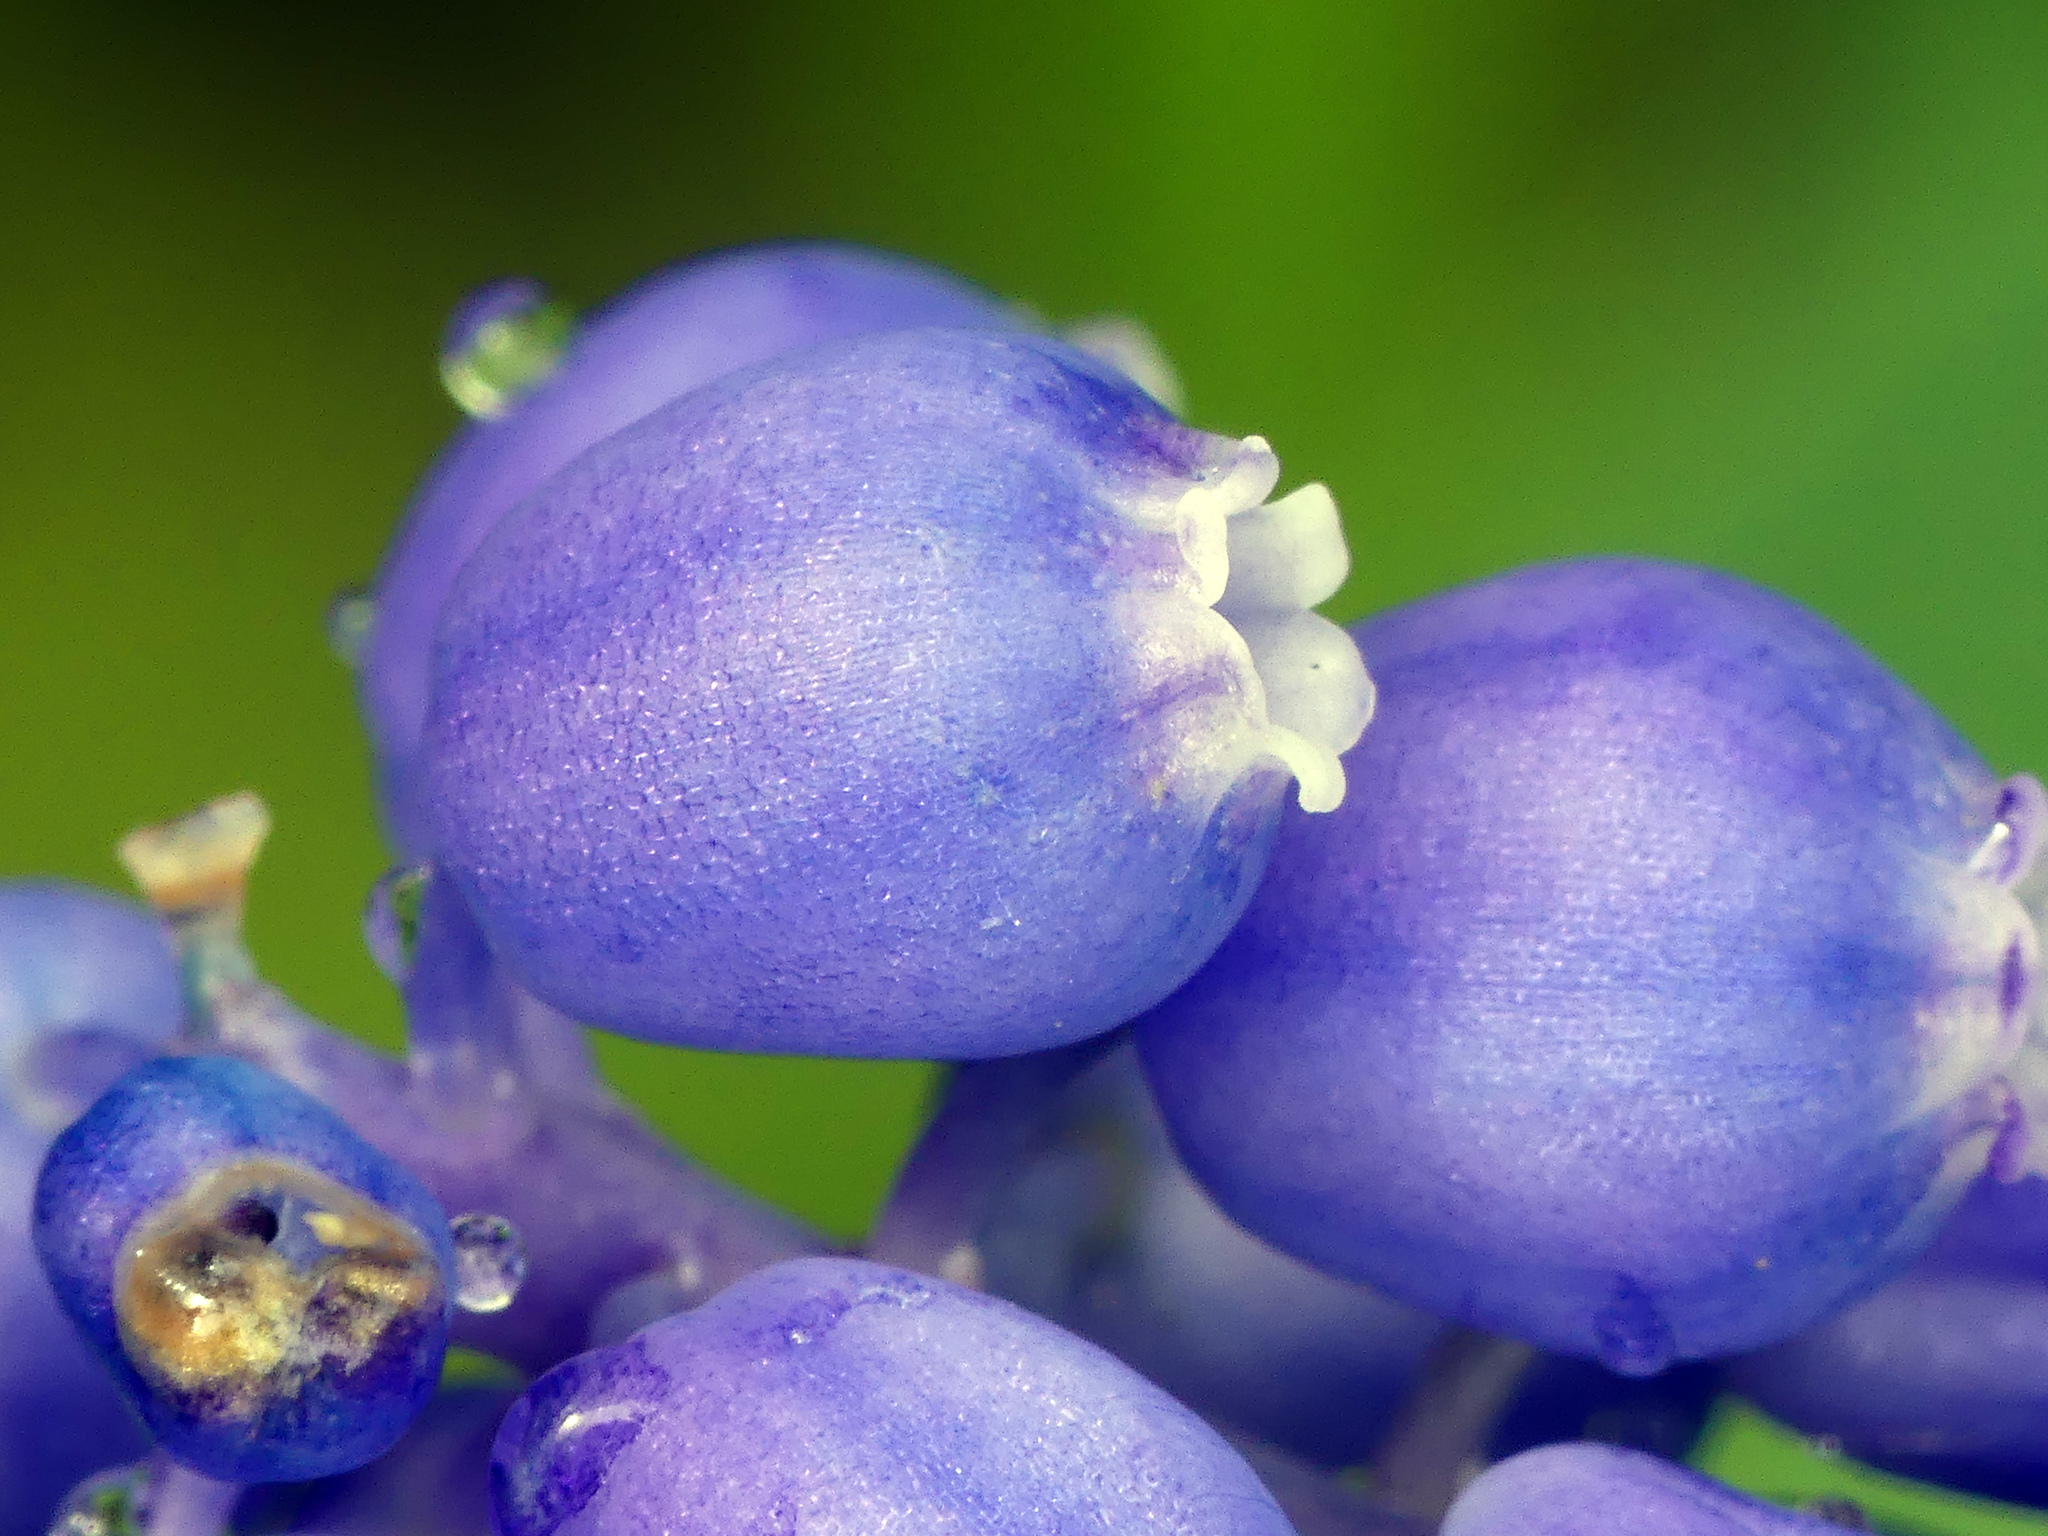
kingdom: Plantae
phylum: Tracheophyta
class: Liliopsida
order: Asparagales
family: Asparagaceae
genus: Muscari
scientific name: Muscari armeniacum
